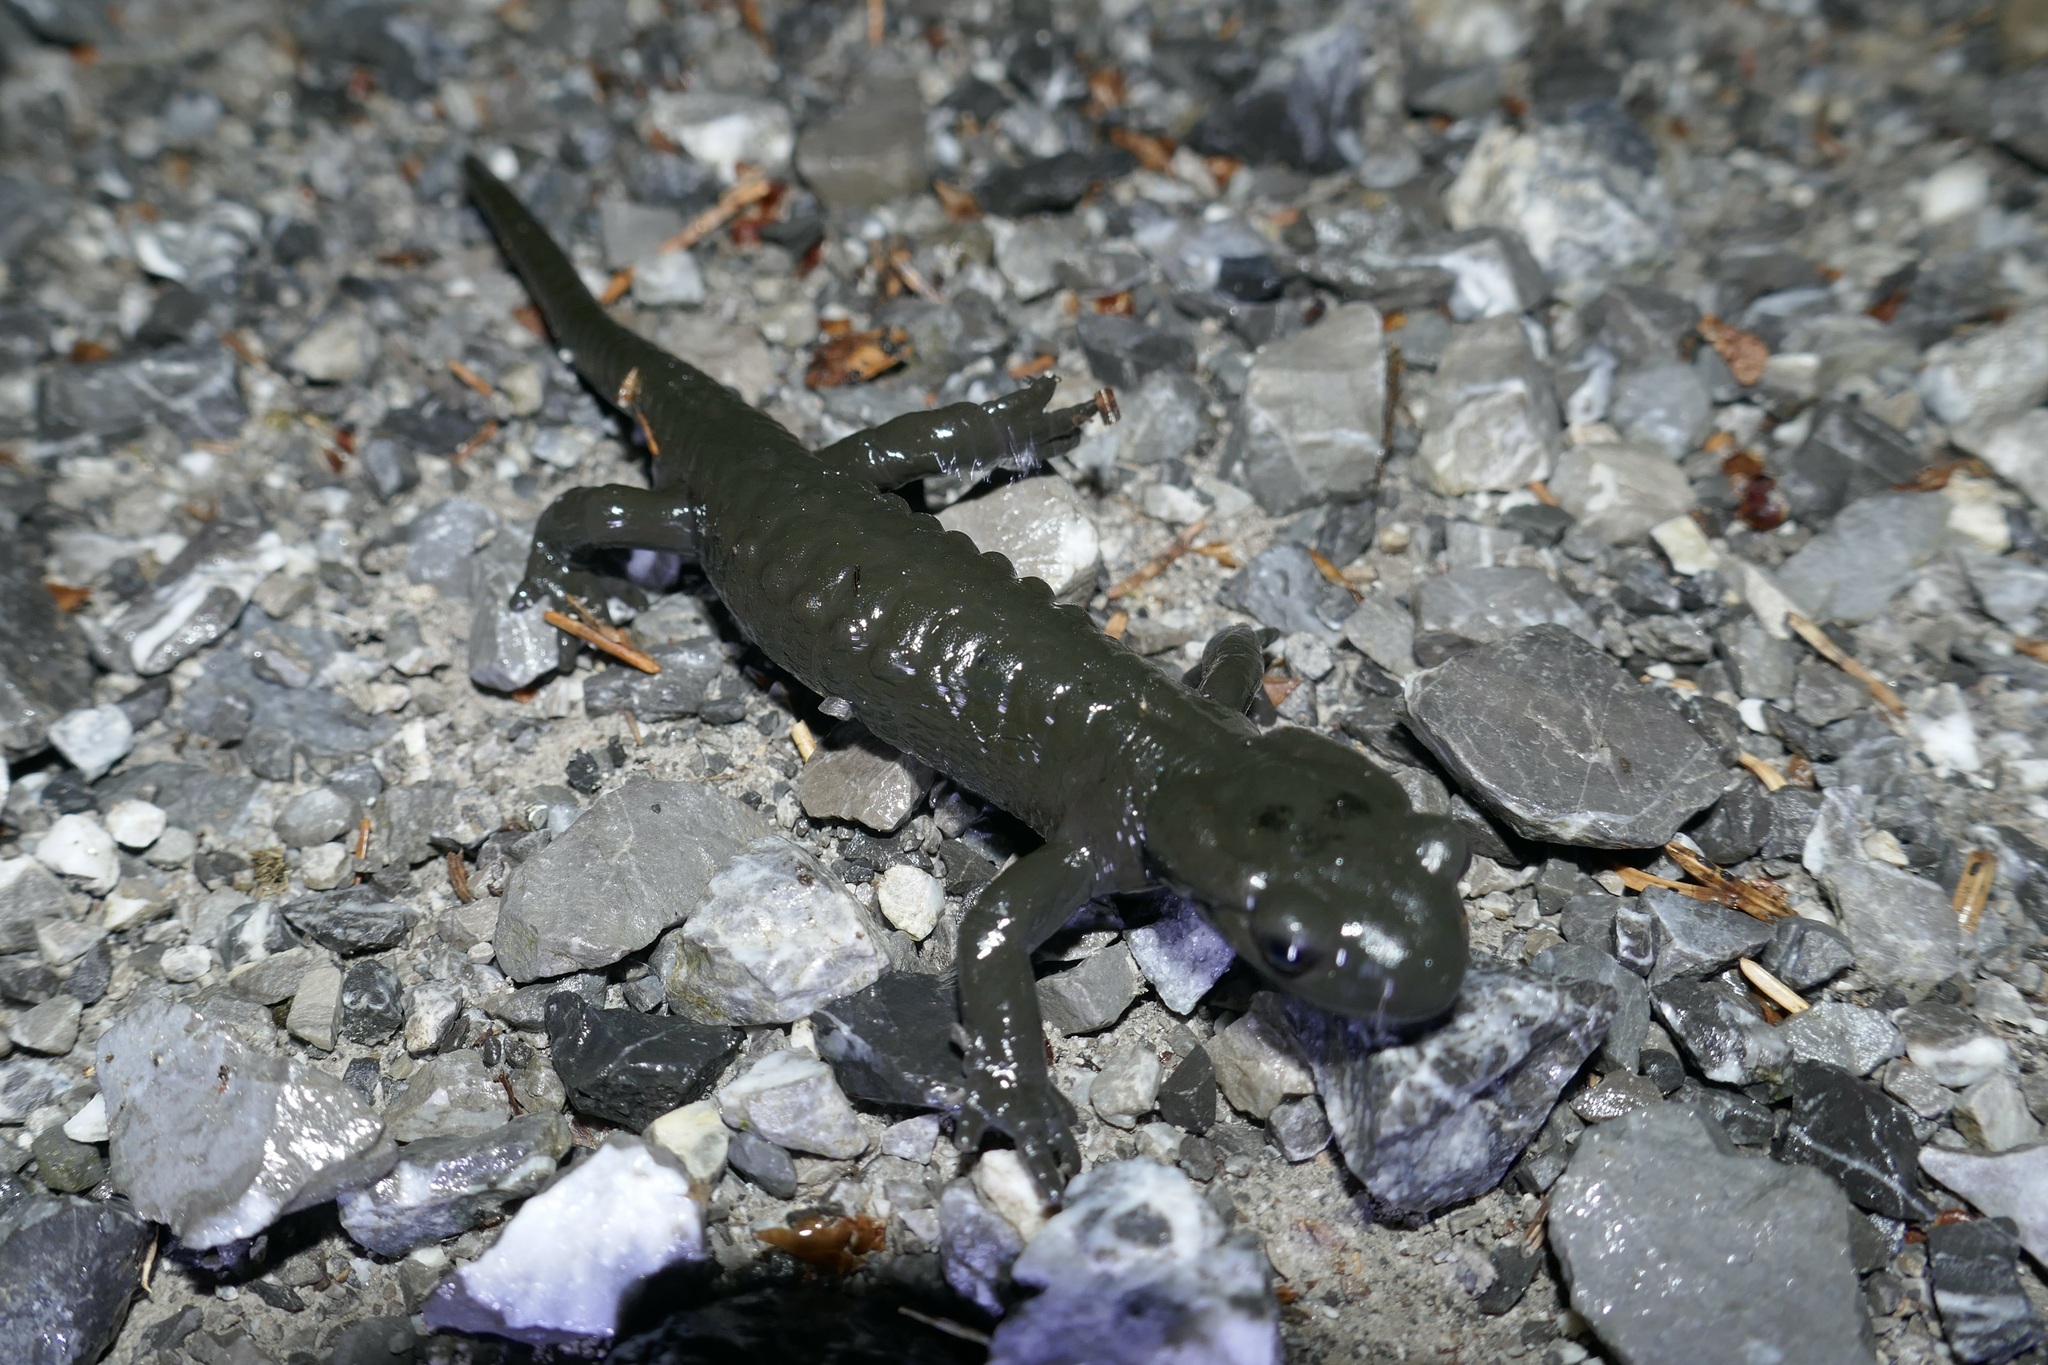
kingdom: Animalia
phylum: Chordata
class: Amphibia
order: Caudata
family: Salamandridae
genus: Salamandra
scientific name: Salamandra atra
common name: Alpine salamander
